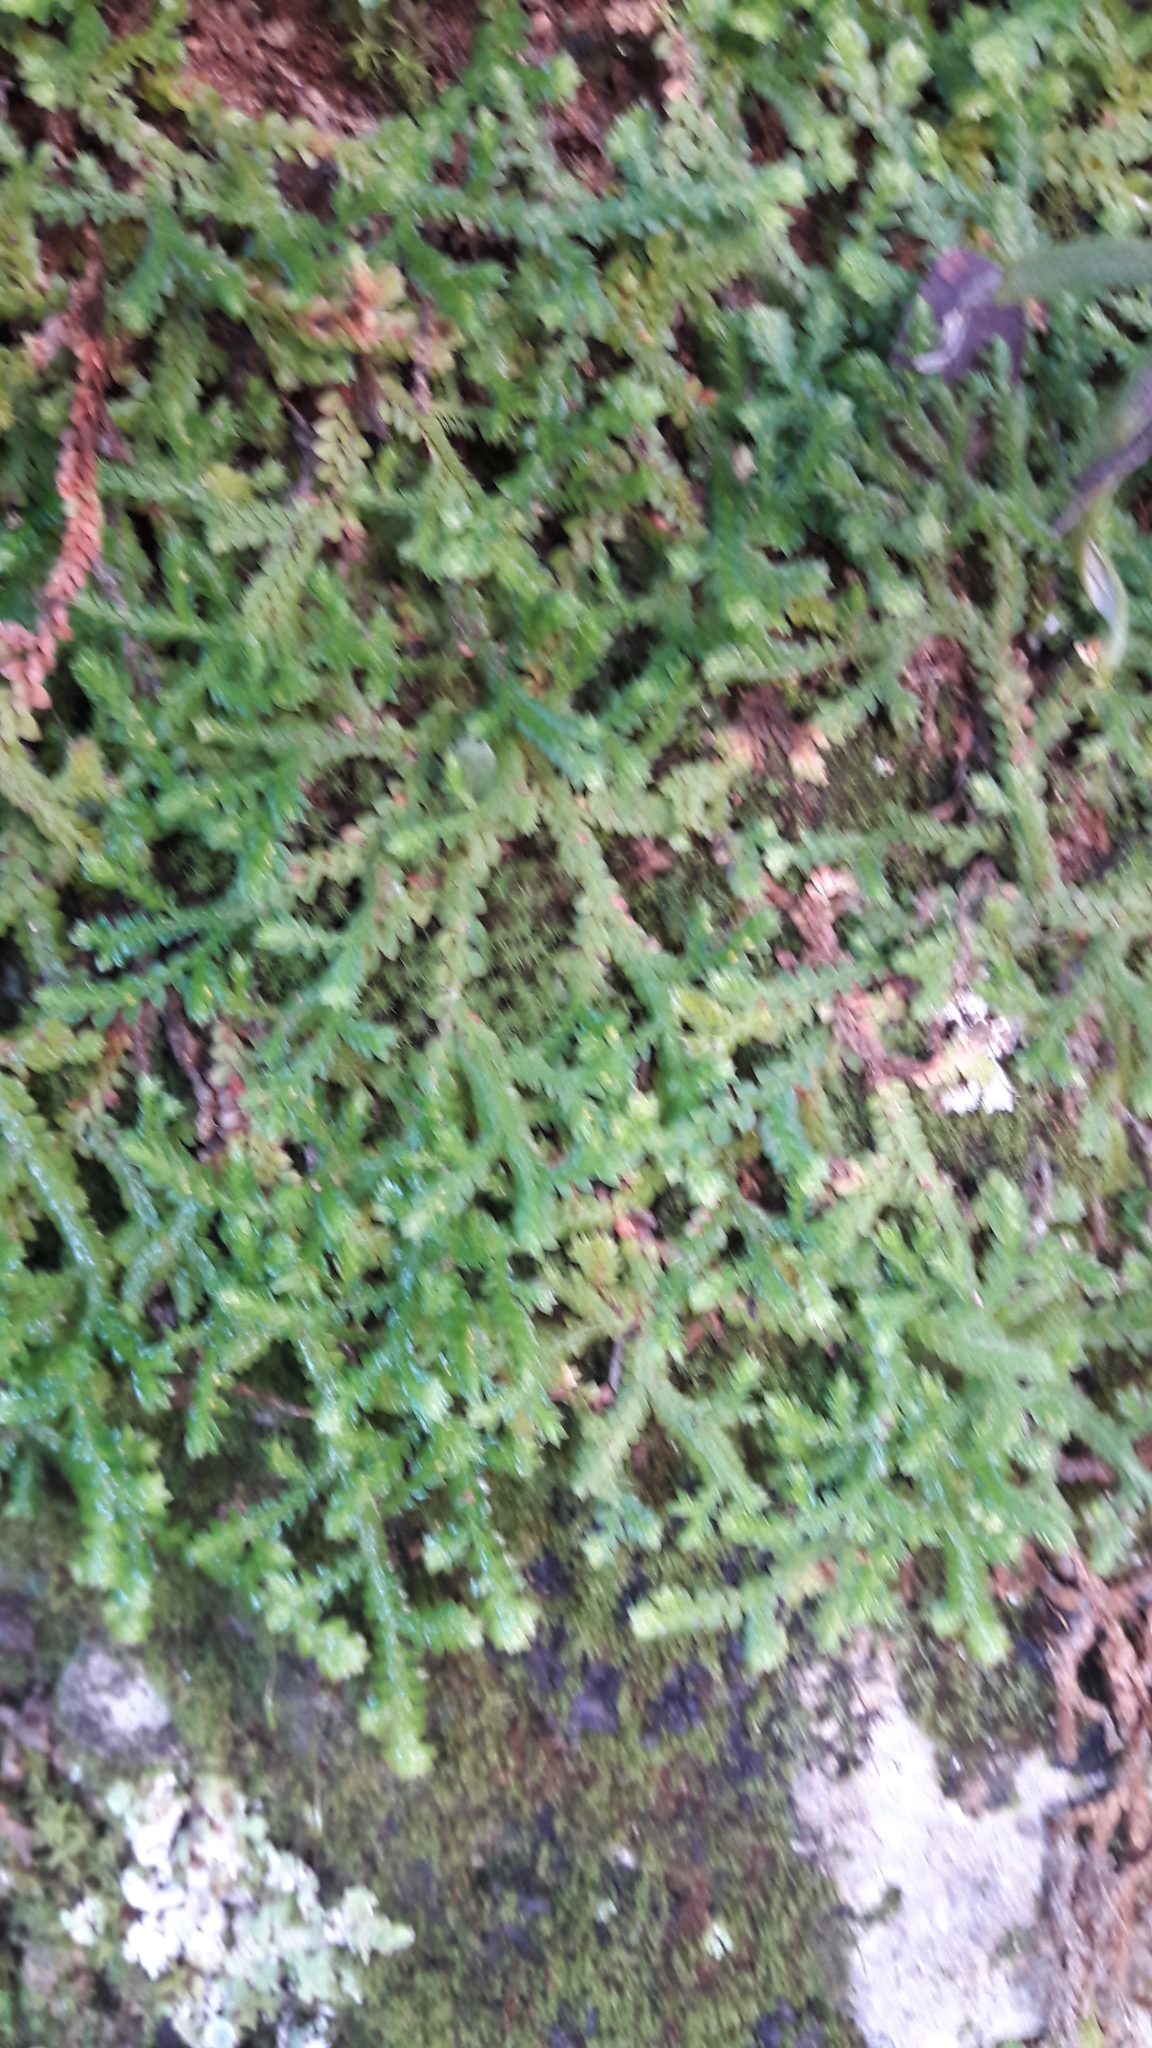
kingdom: Plantae
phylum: Tracheophyta
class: Lycopodiopsida
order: Selaginellales
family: Selaginellaceae
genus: Selaginella
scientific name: Selaginella denticulata
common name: Toothed-leaved clubmoss
